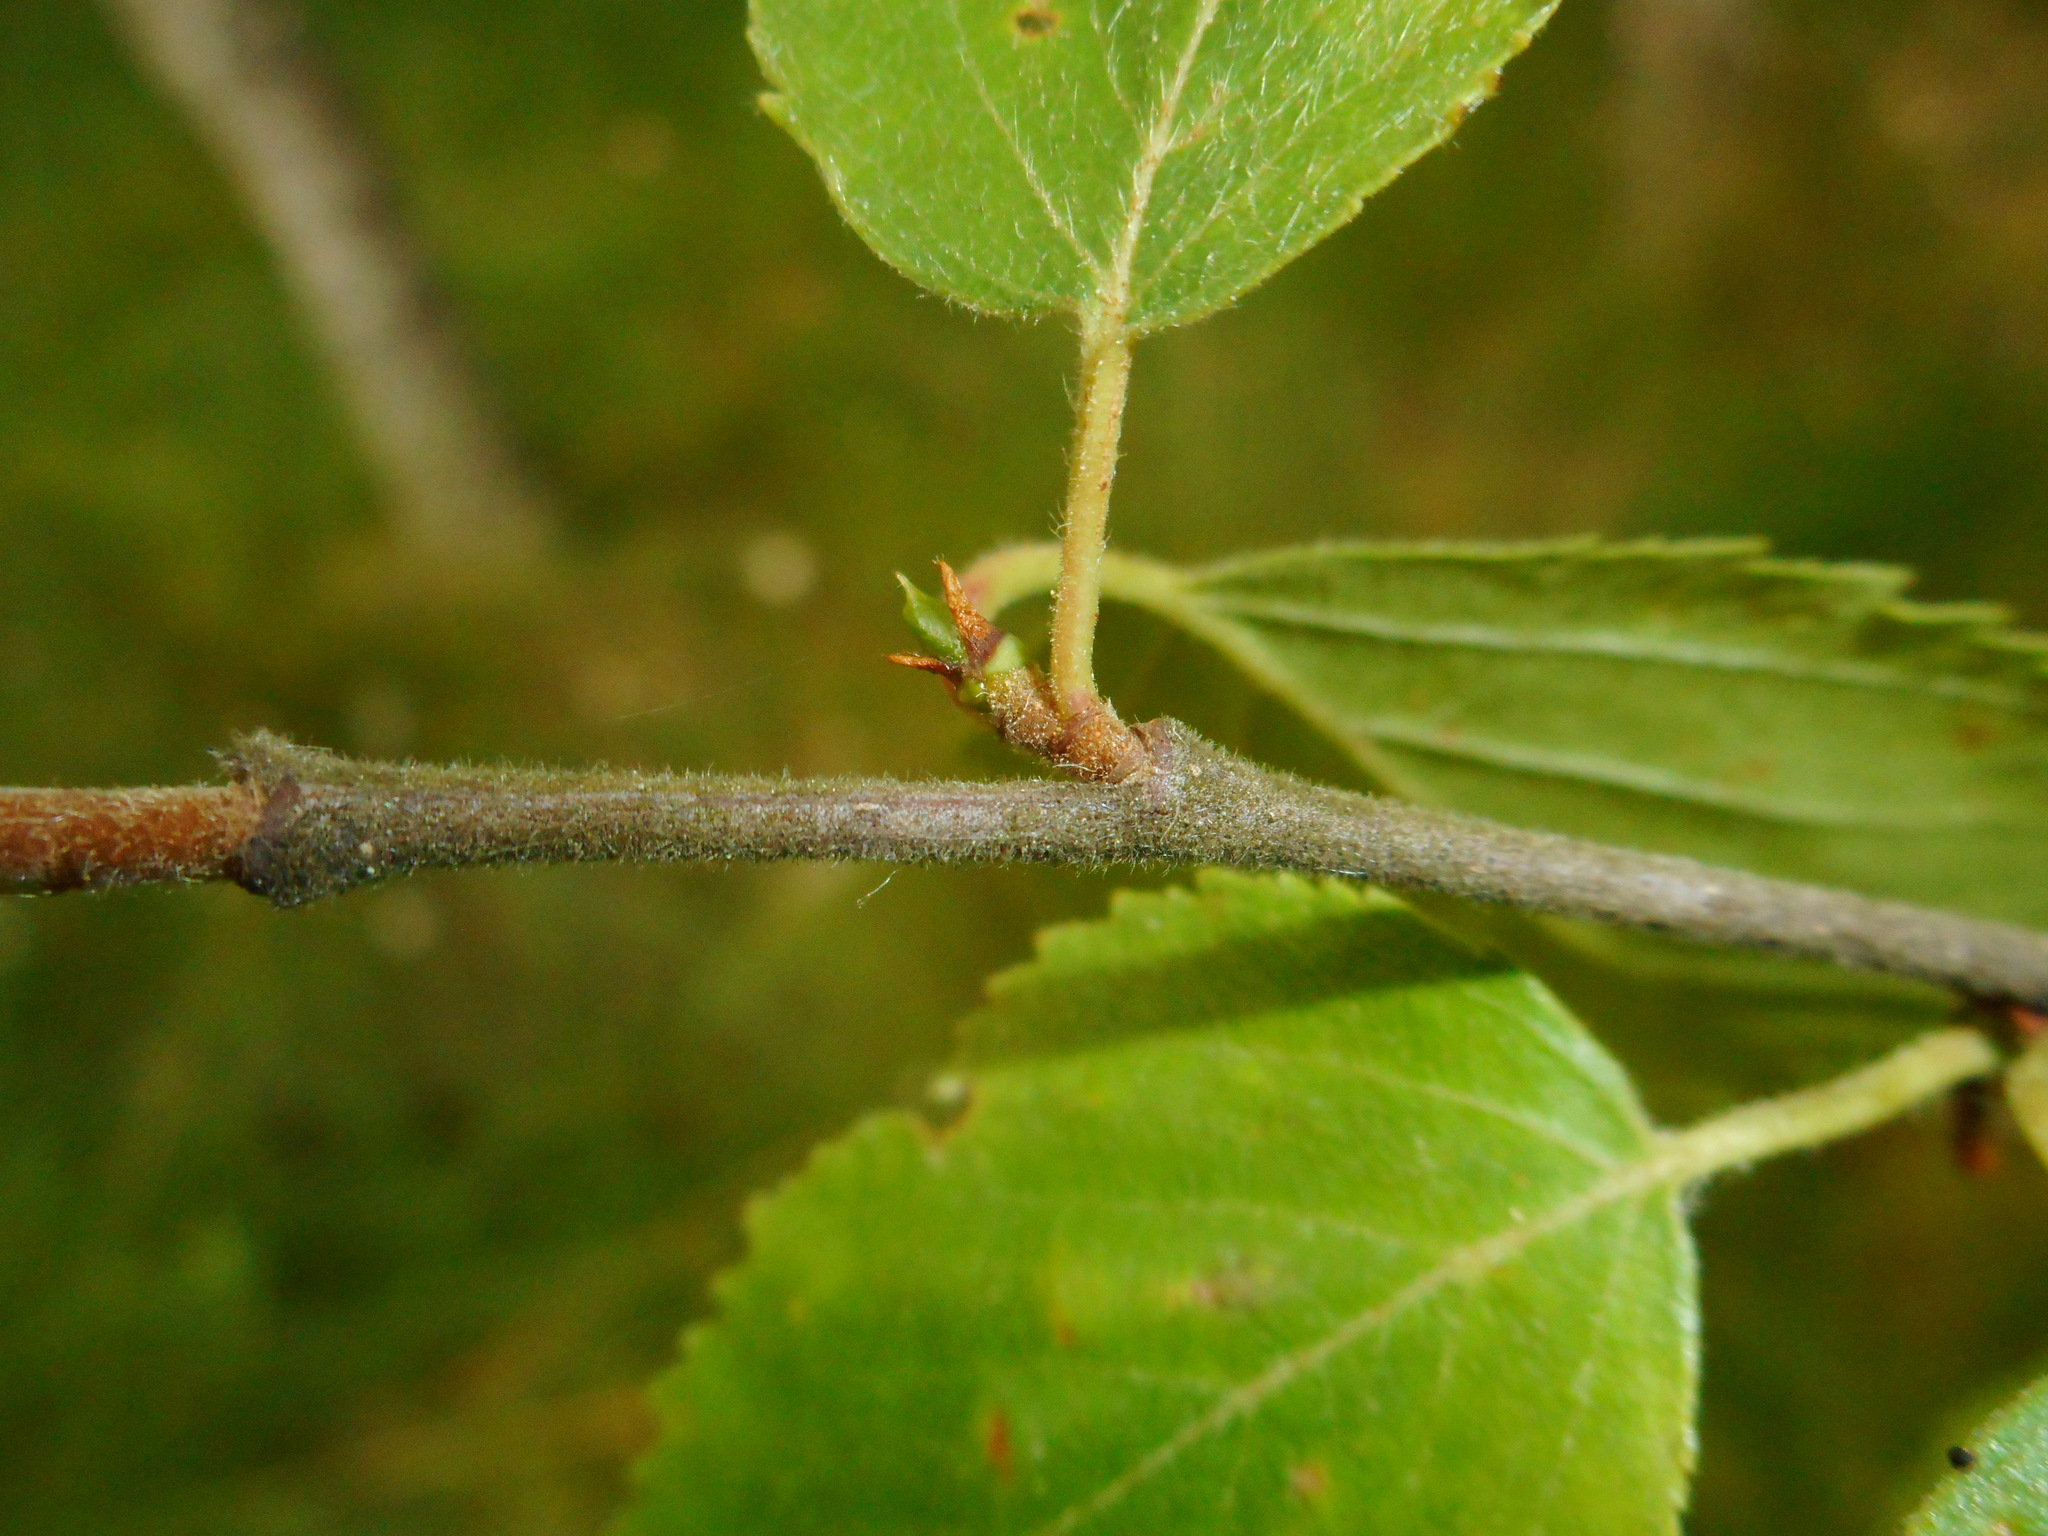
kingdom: Plantae
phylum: Tracheophyta
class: Magnoliopsida
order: Fagales
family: Betulaceae
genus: Betula
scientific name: Betula pubescens
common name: Downy birch
